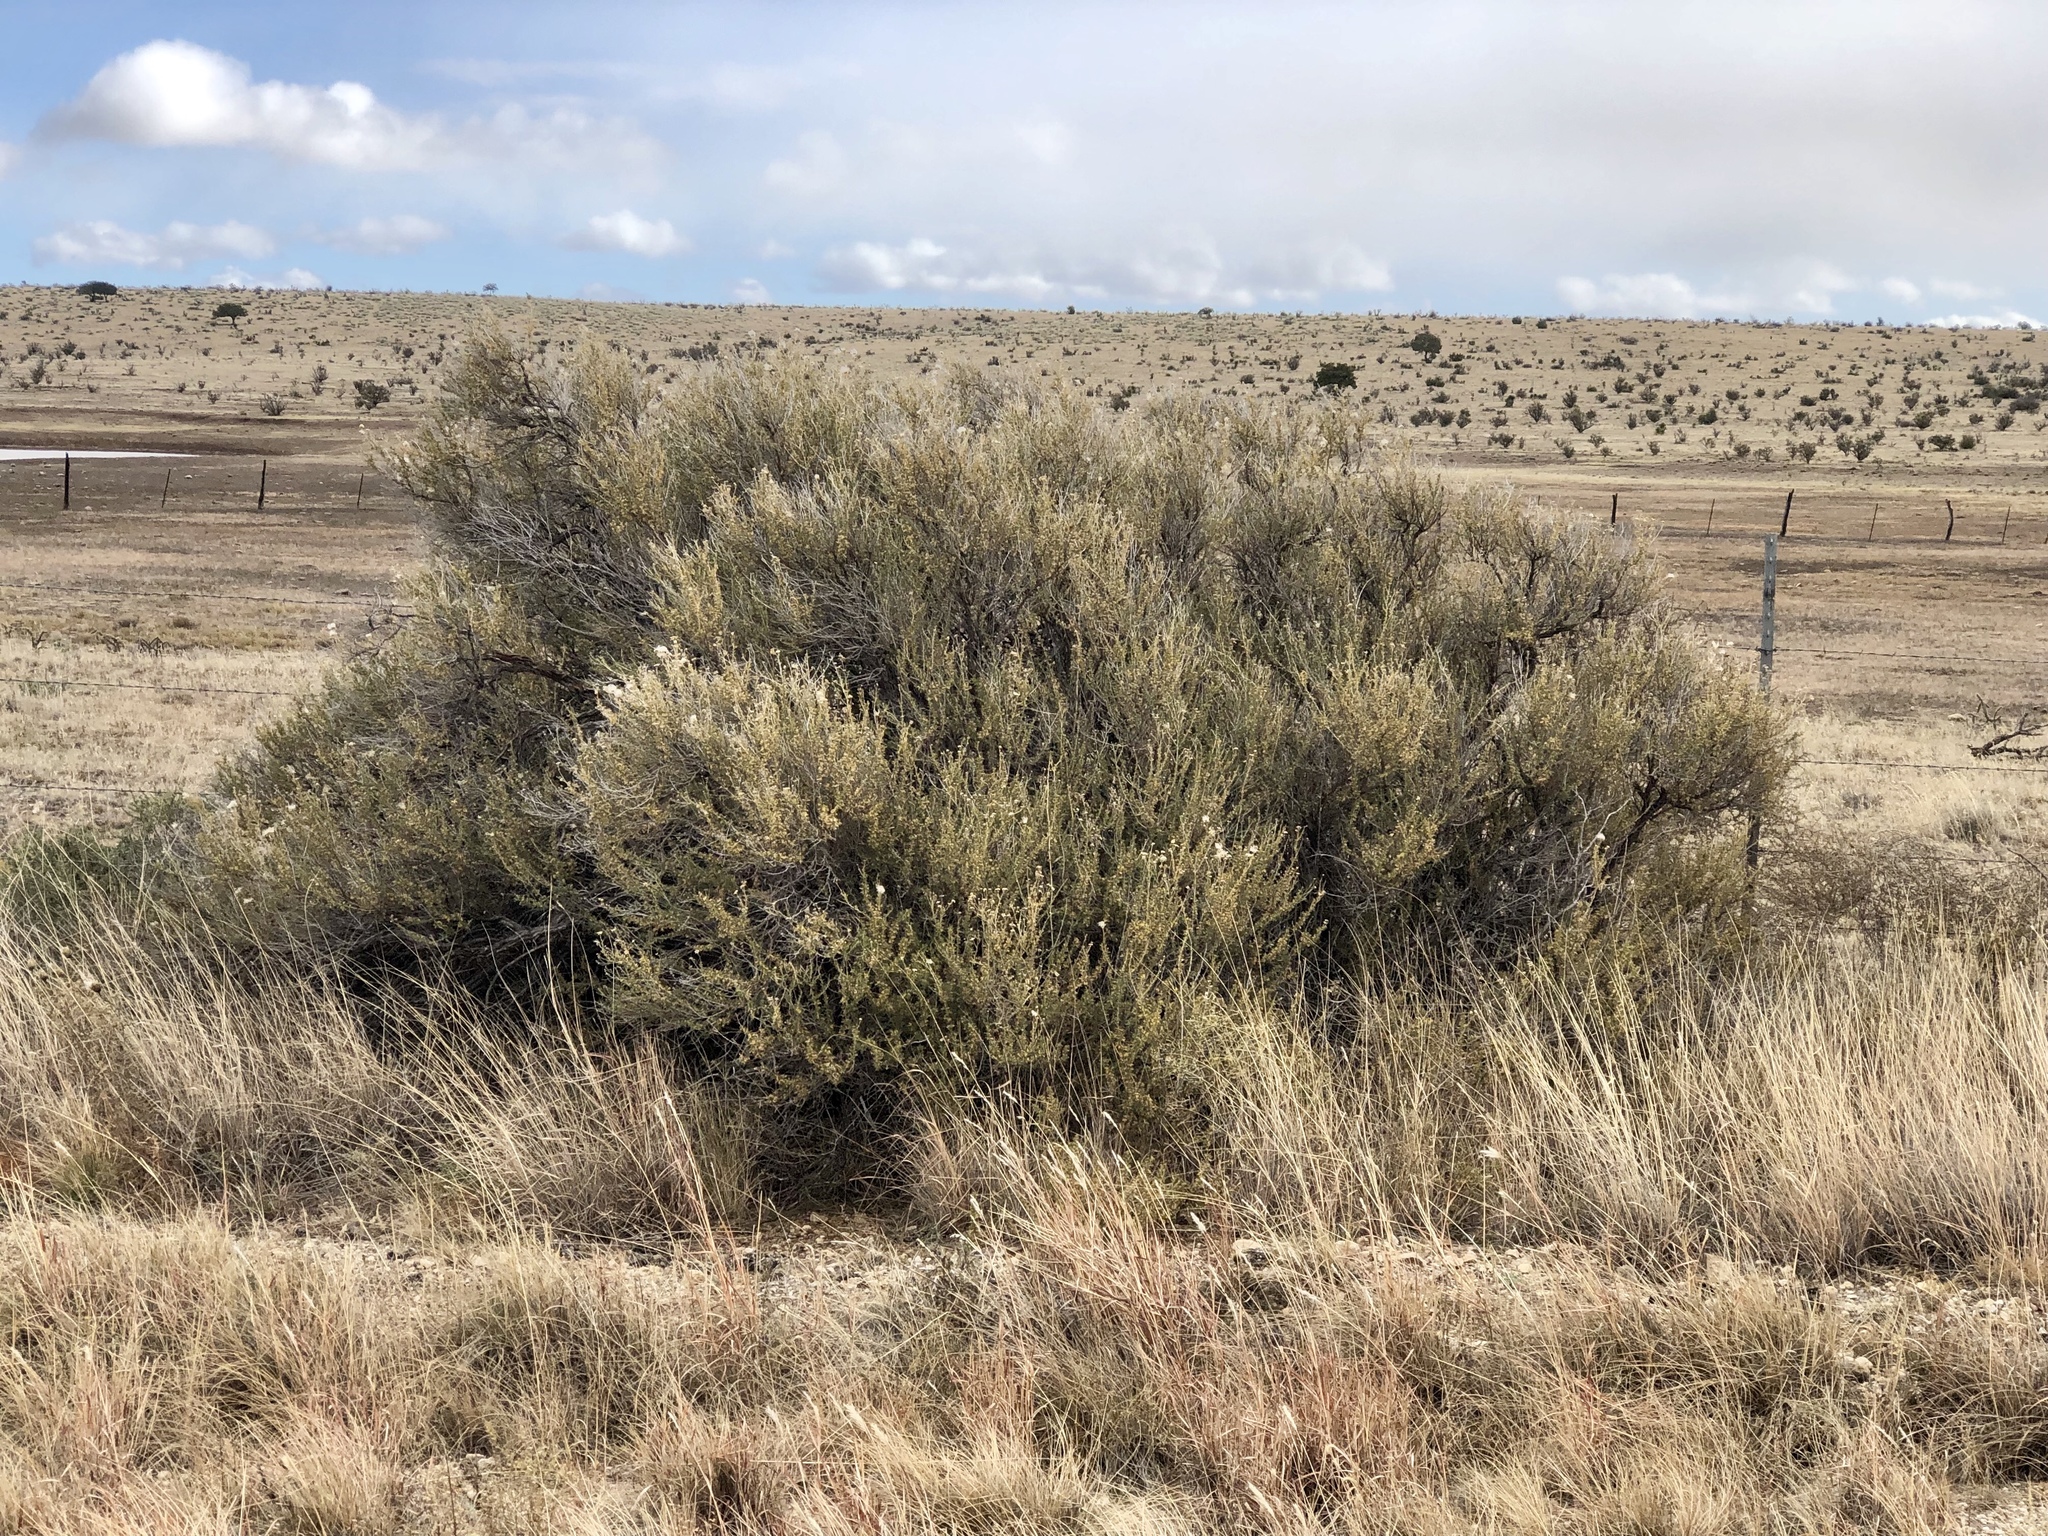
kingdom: Plantae
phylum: Tracheophyta
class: Magnoliopsida
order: Rosales
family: Rosaceae
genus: Fallugia
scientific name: Fallugia paradoxa
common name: Apache-plume
